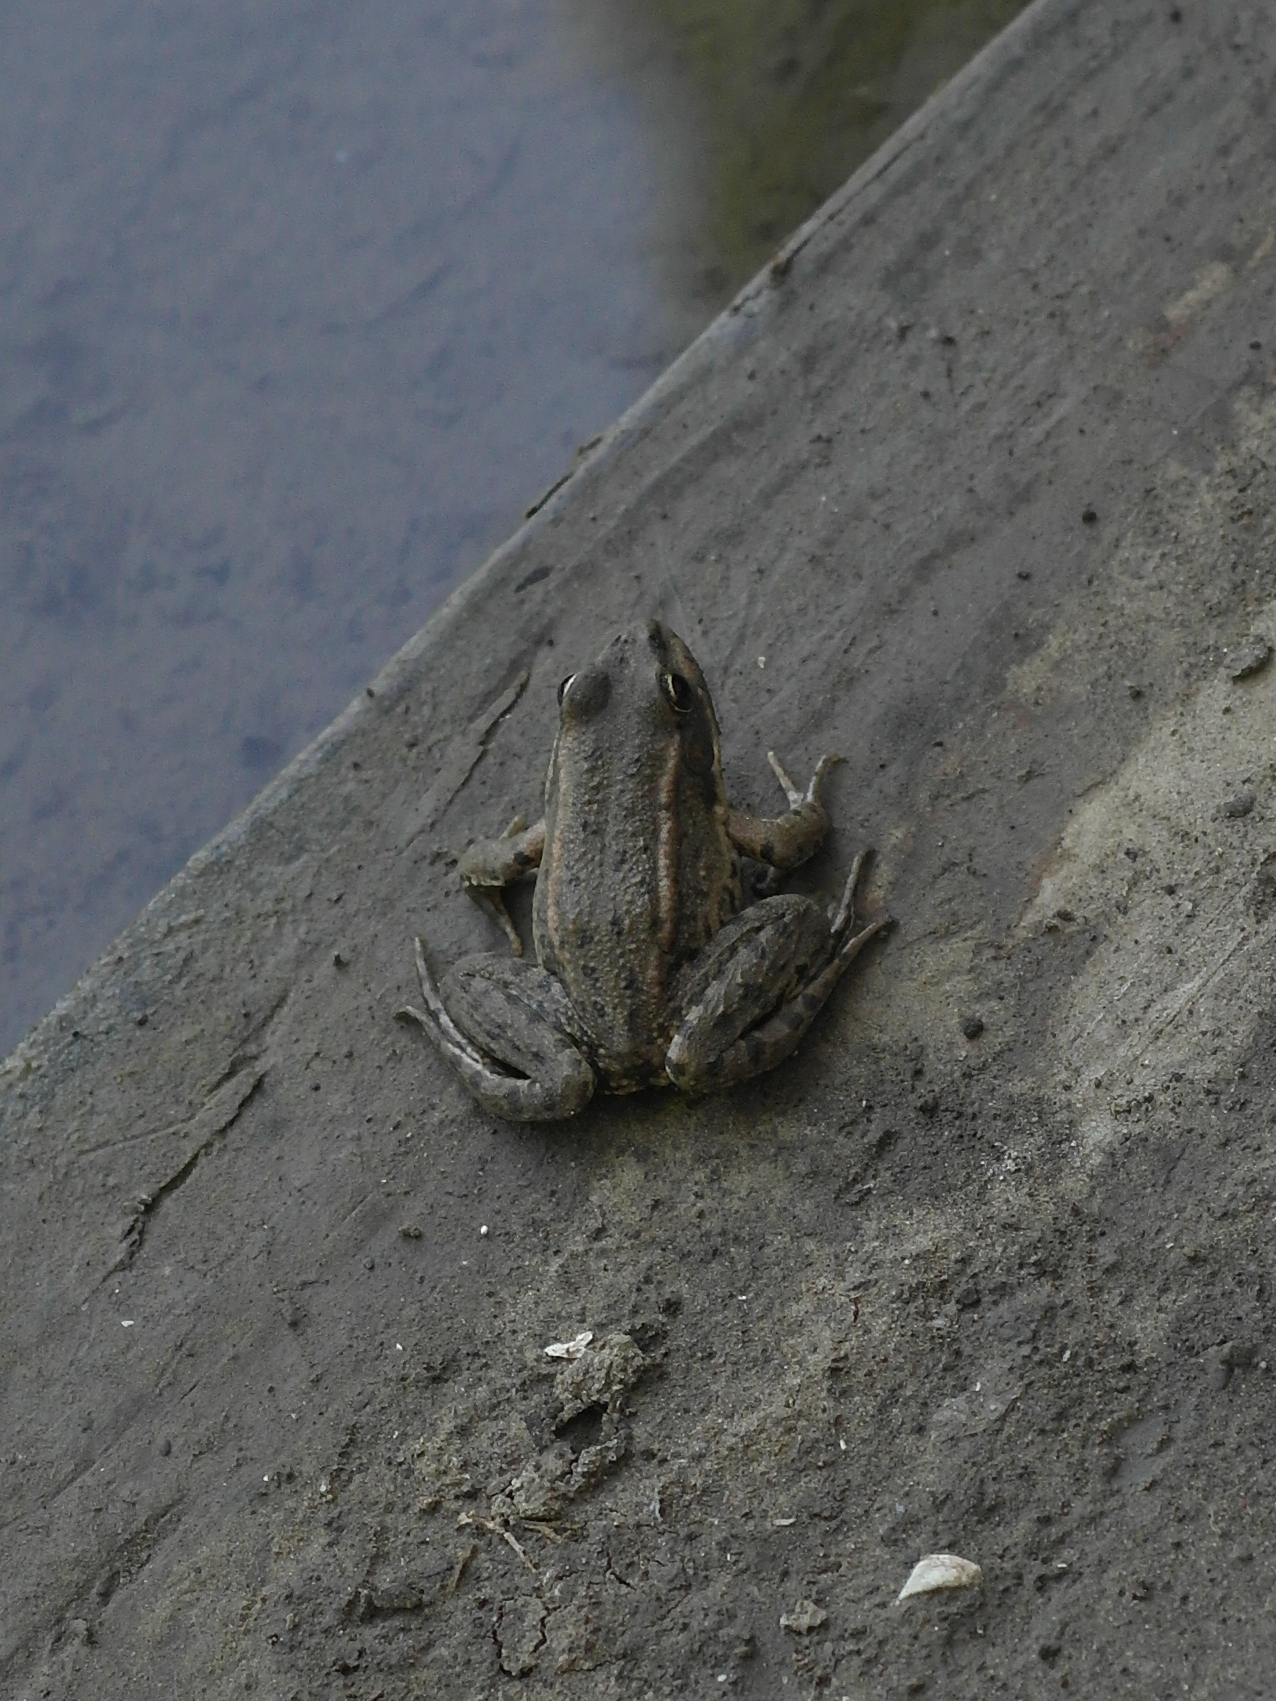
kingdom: Animalia
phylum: Chordata
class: Amphibia
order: Anura
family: Ranidae
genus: Pelophylax
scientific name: Pelophylax ridibundus
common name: Marsh frog
